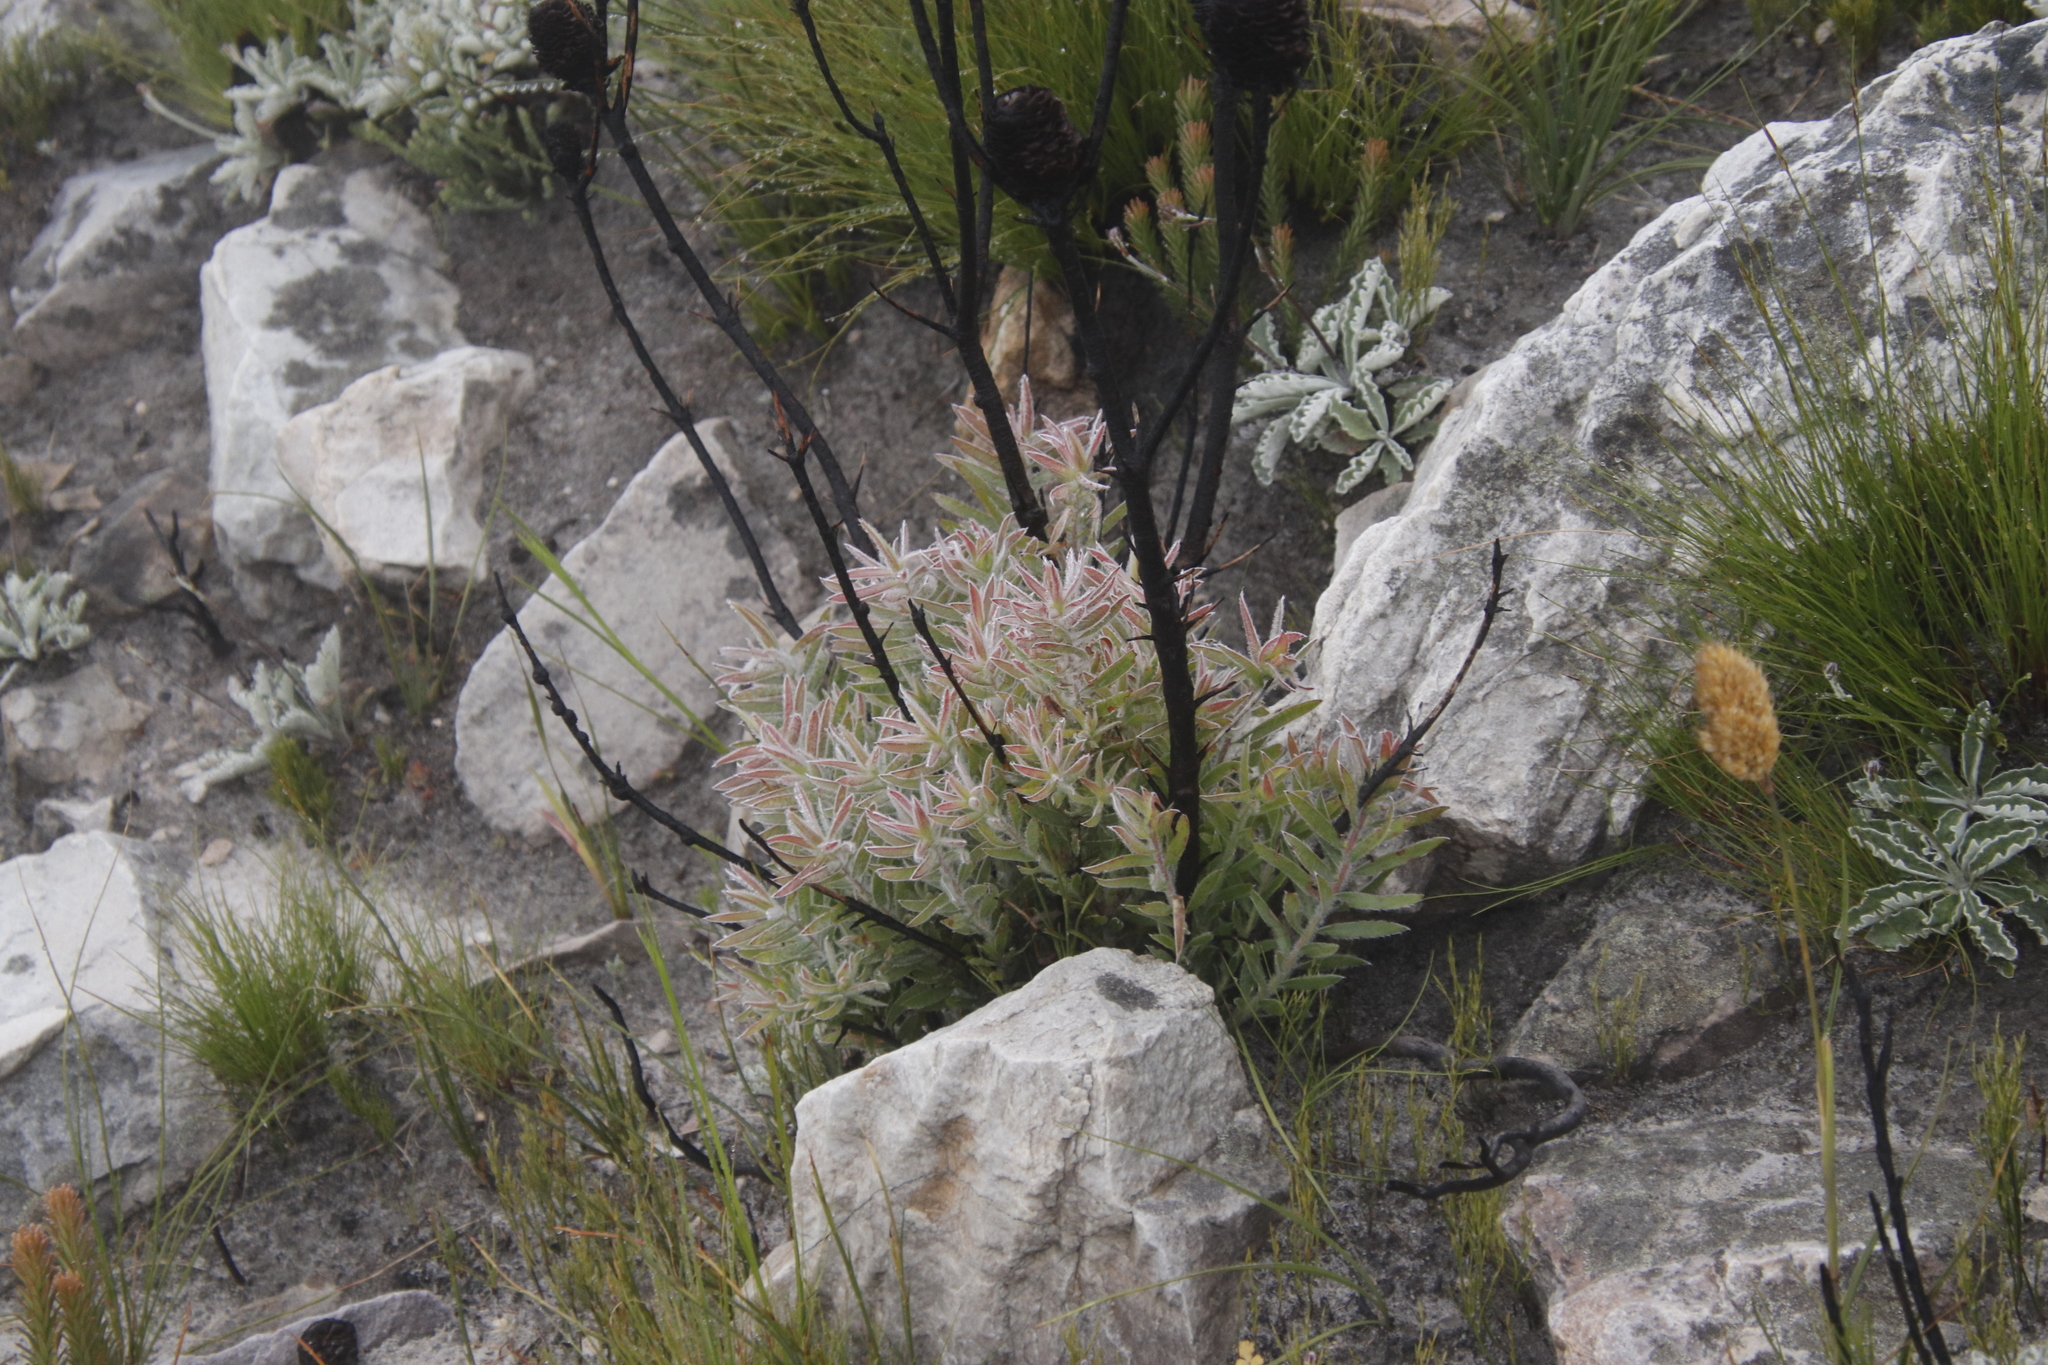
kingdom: Plantae
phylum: Tracheophyta
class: Magnoliopsida
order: Proteales
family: Proteaceae
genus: Leucadendron
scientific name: Leucadendron spissifolium
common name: Spear-leaf conebush
